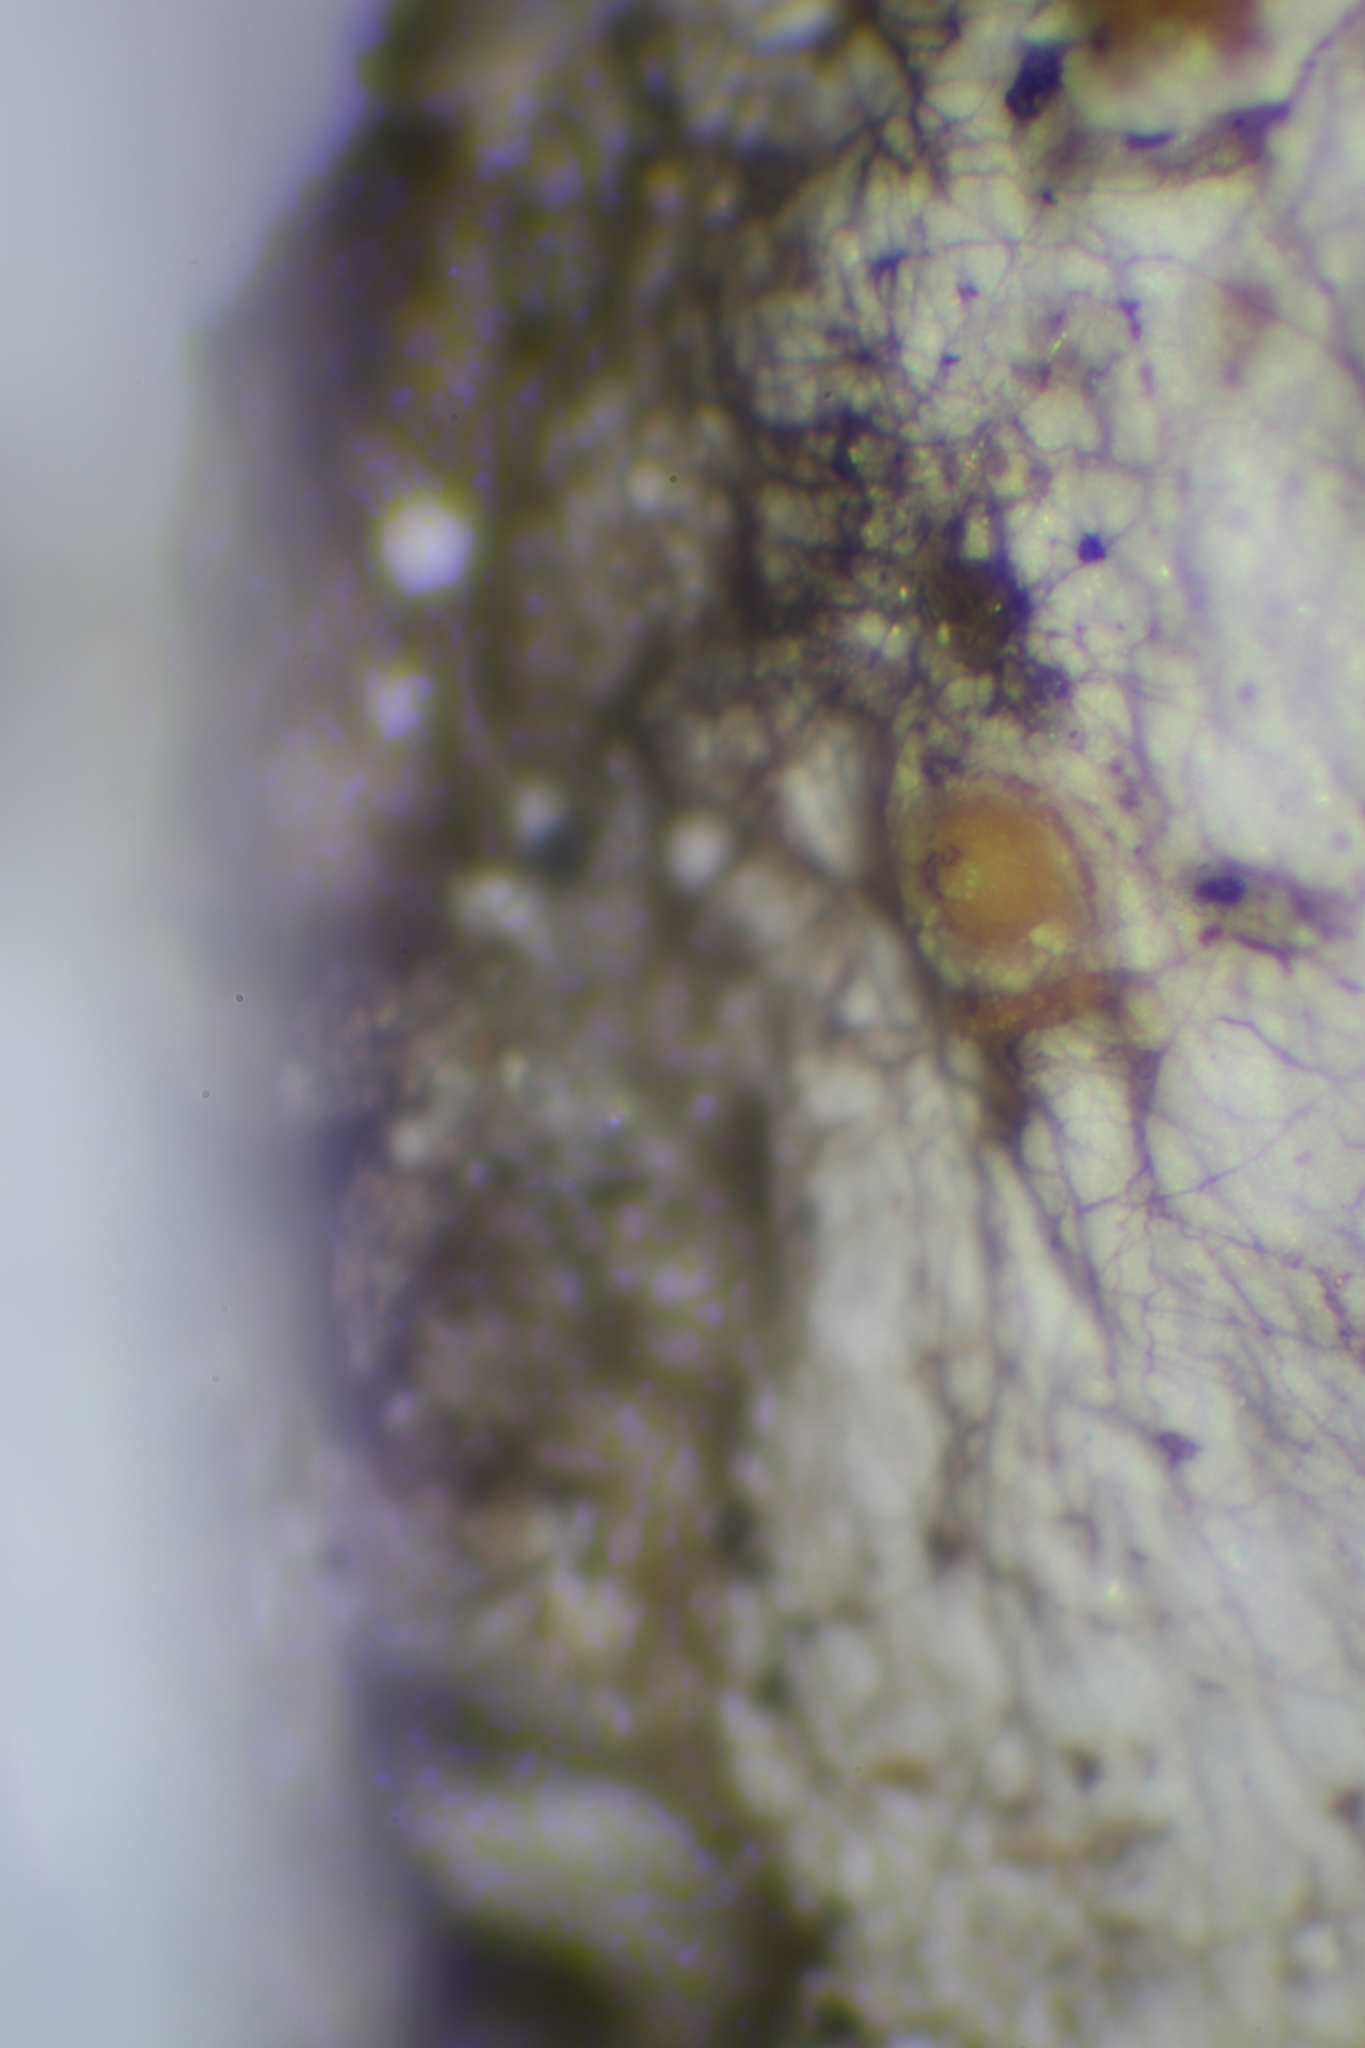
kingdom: Fungi
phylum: Ascomycota
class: Sareomycetes
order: Sareales
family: Sareaceae
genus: Sarea
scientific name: Sarea resinae
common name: Sarea lichen
